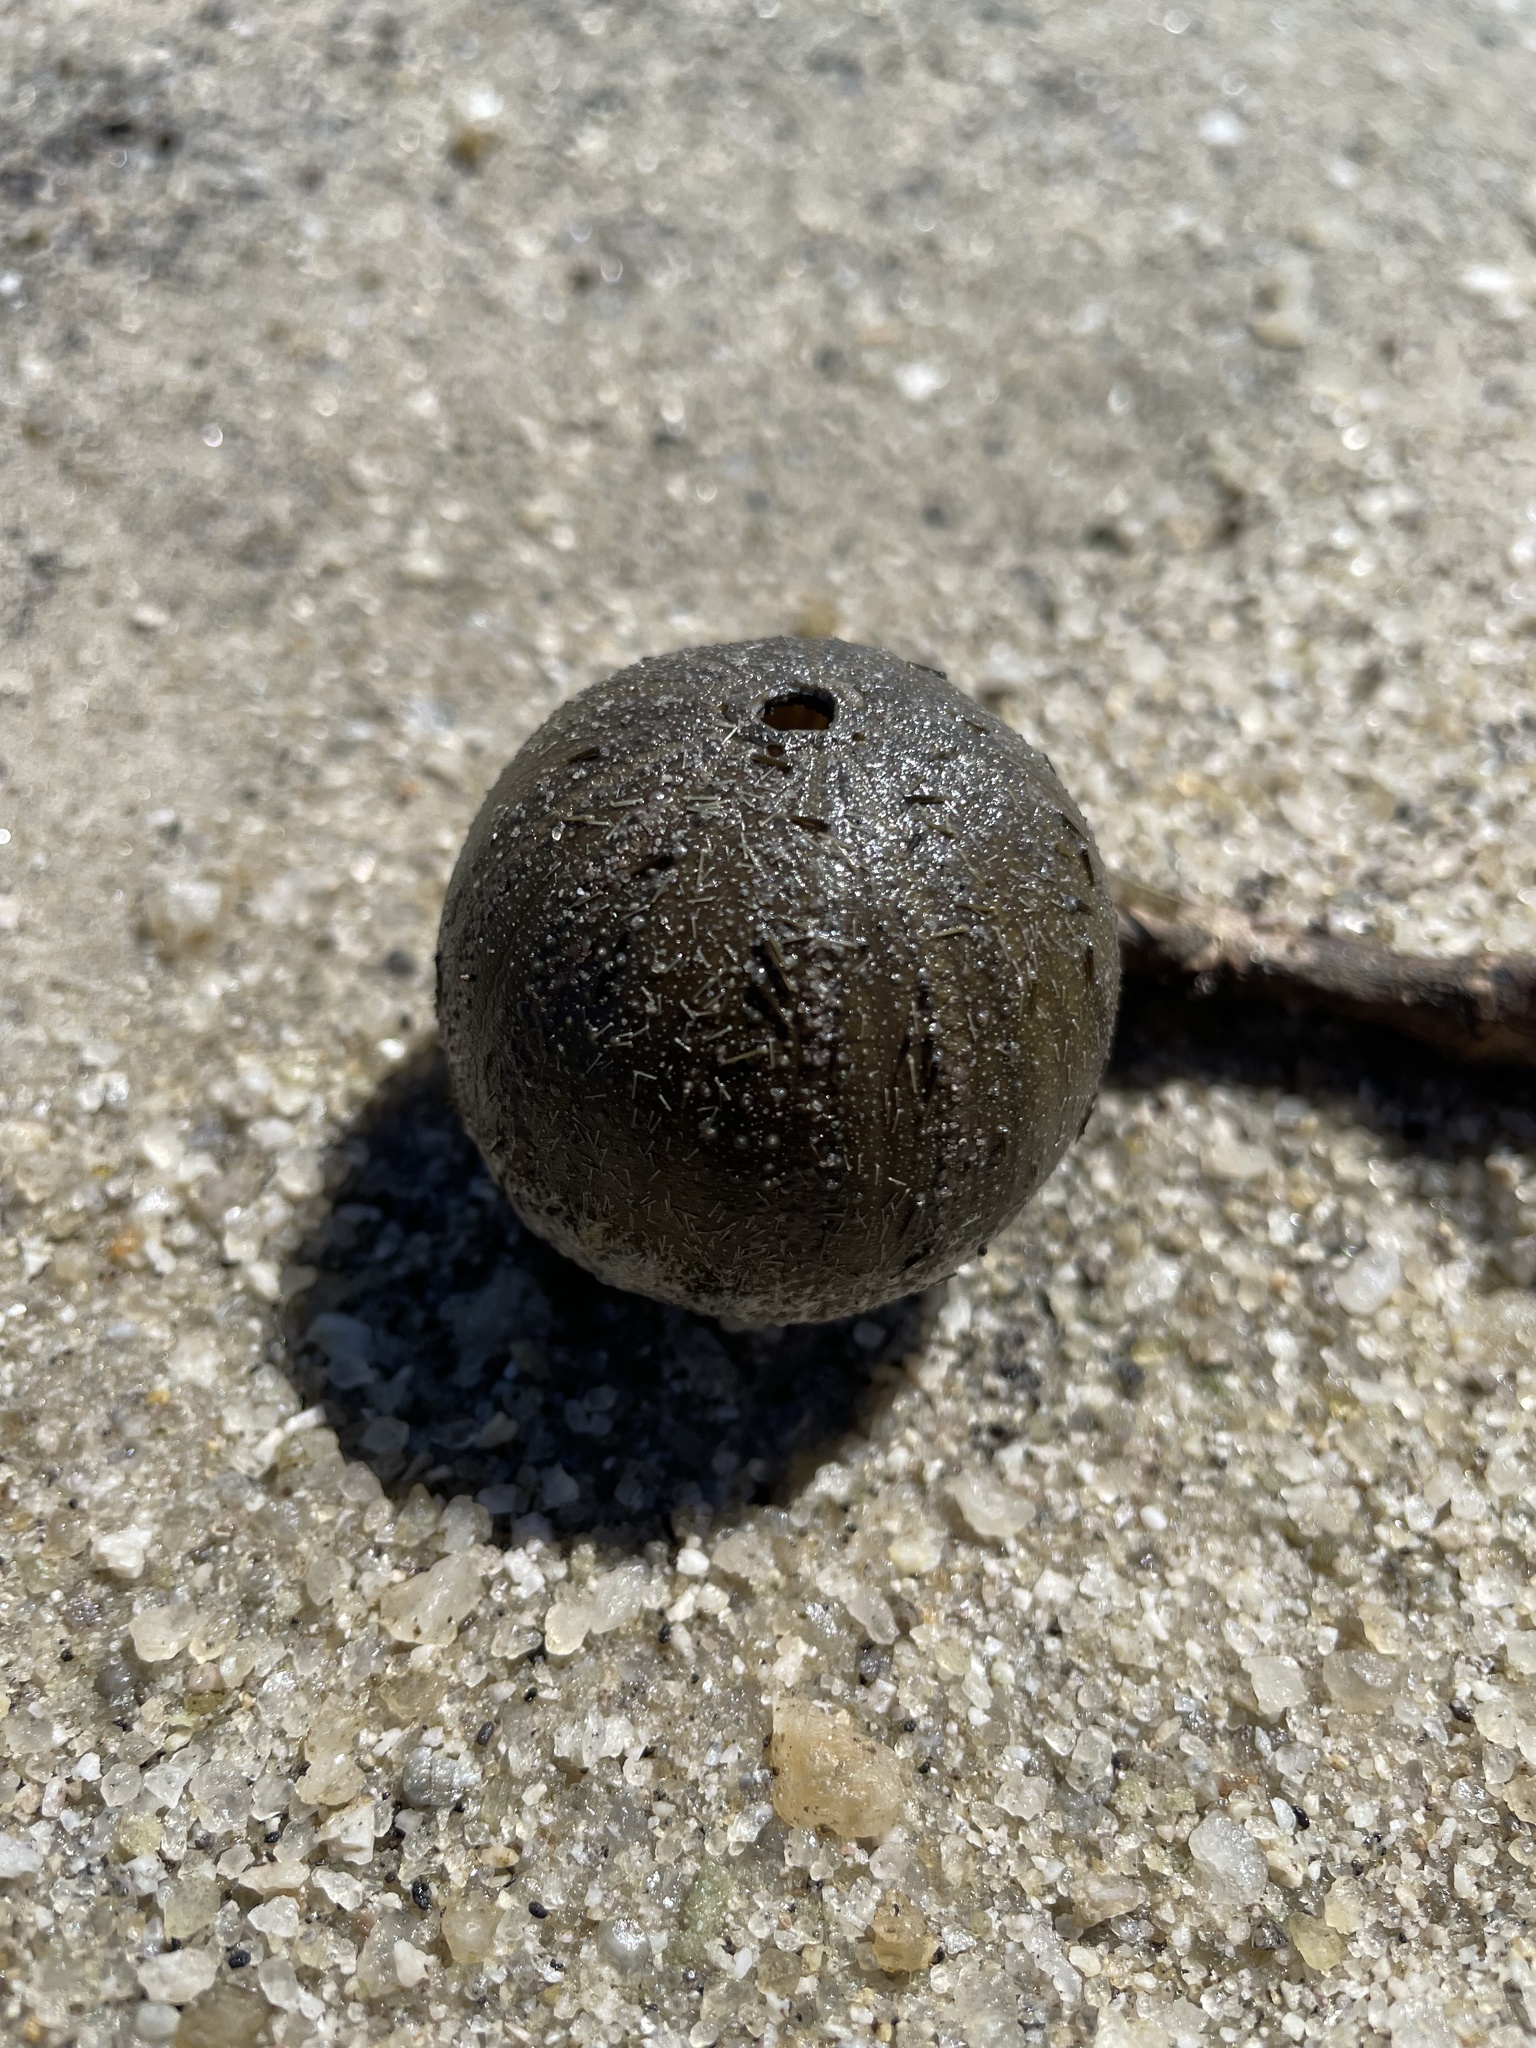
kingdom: Animalia
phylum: Echinodermata
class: Echinoidea
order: Camarodonta
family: Temnopleuridae
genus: Amblypneustes
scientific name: Amblypneustes ovum
